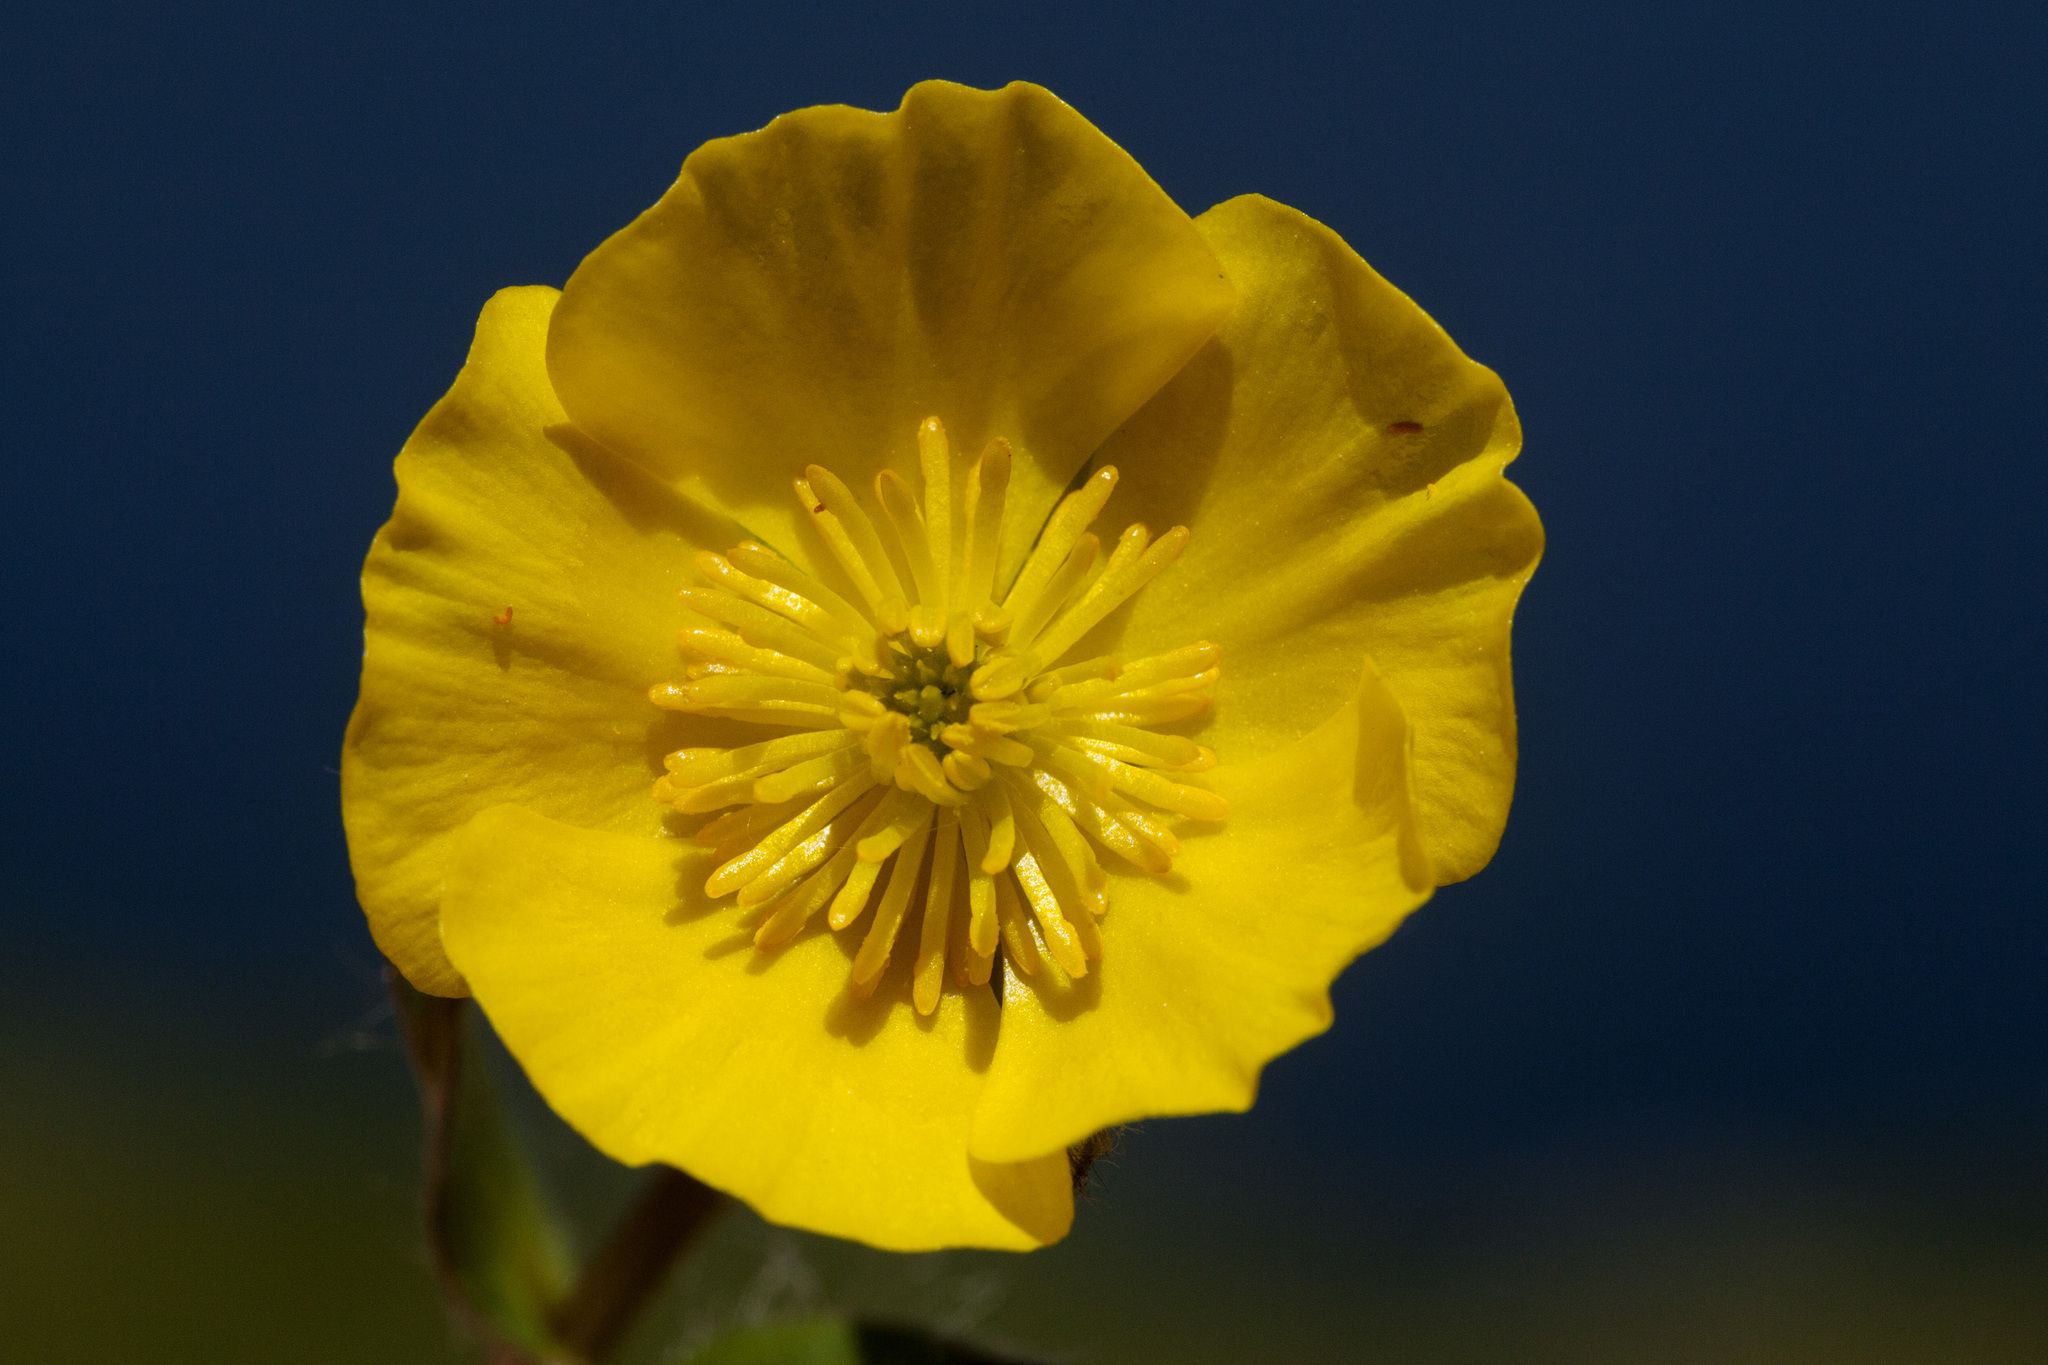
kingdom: Plantae
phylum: Tracheophyta
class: Magnoliopsida
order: Ranunculales
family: Ranunculaceae
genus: Ranunculus
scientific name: Ranunculus macauleyi
